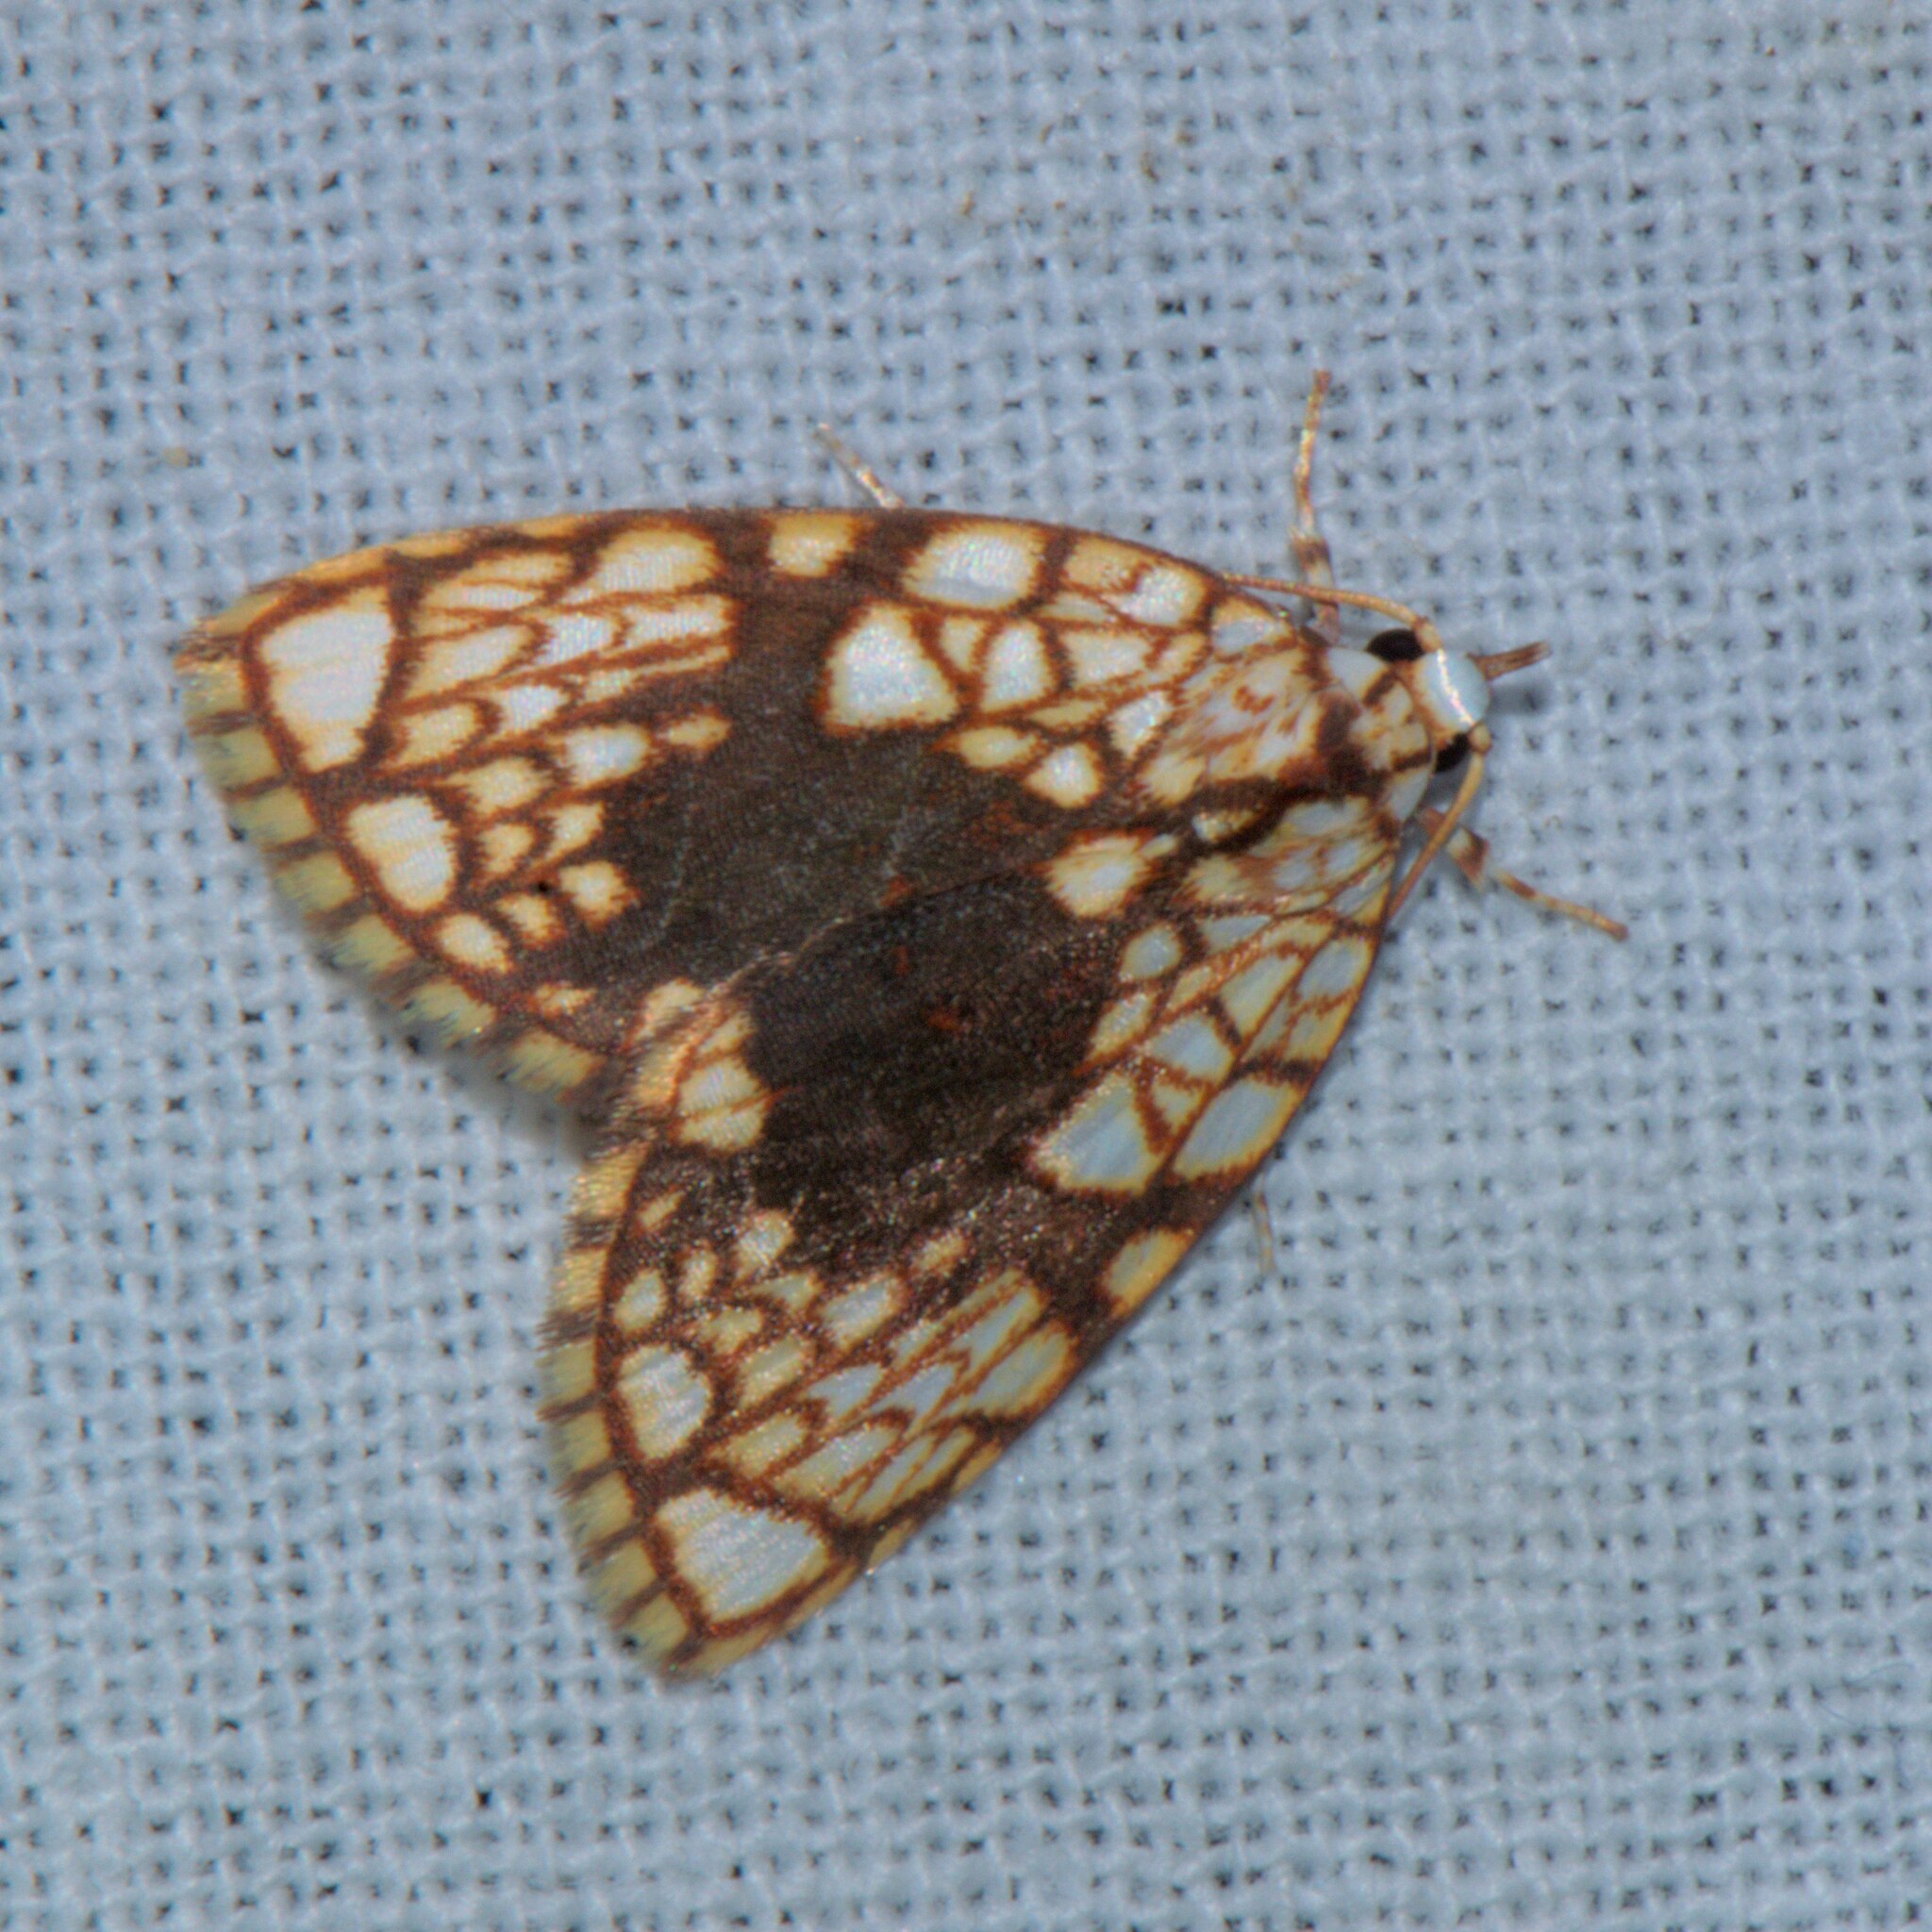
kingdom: Animalia
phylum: Arthropoda
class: Insecta
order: Lepidoptera
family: Nolidae
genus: Gabala
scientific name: Gabala roseoretis
